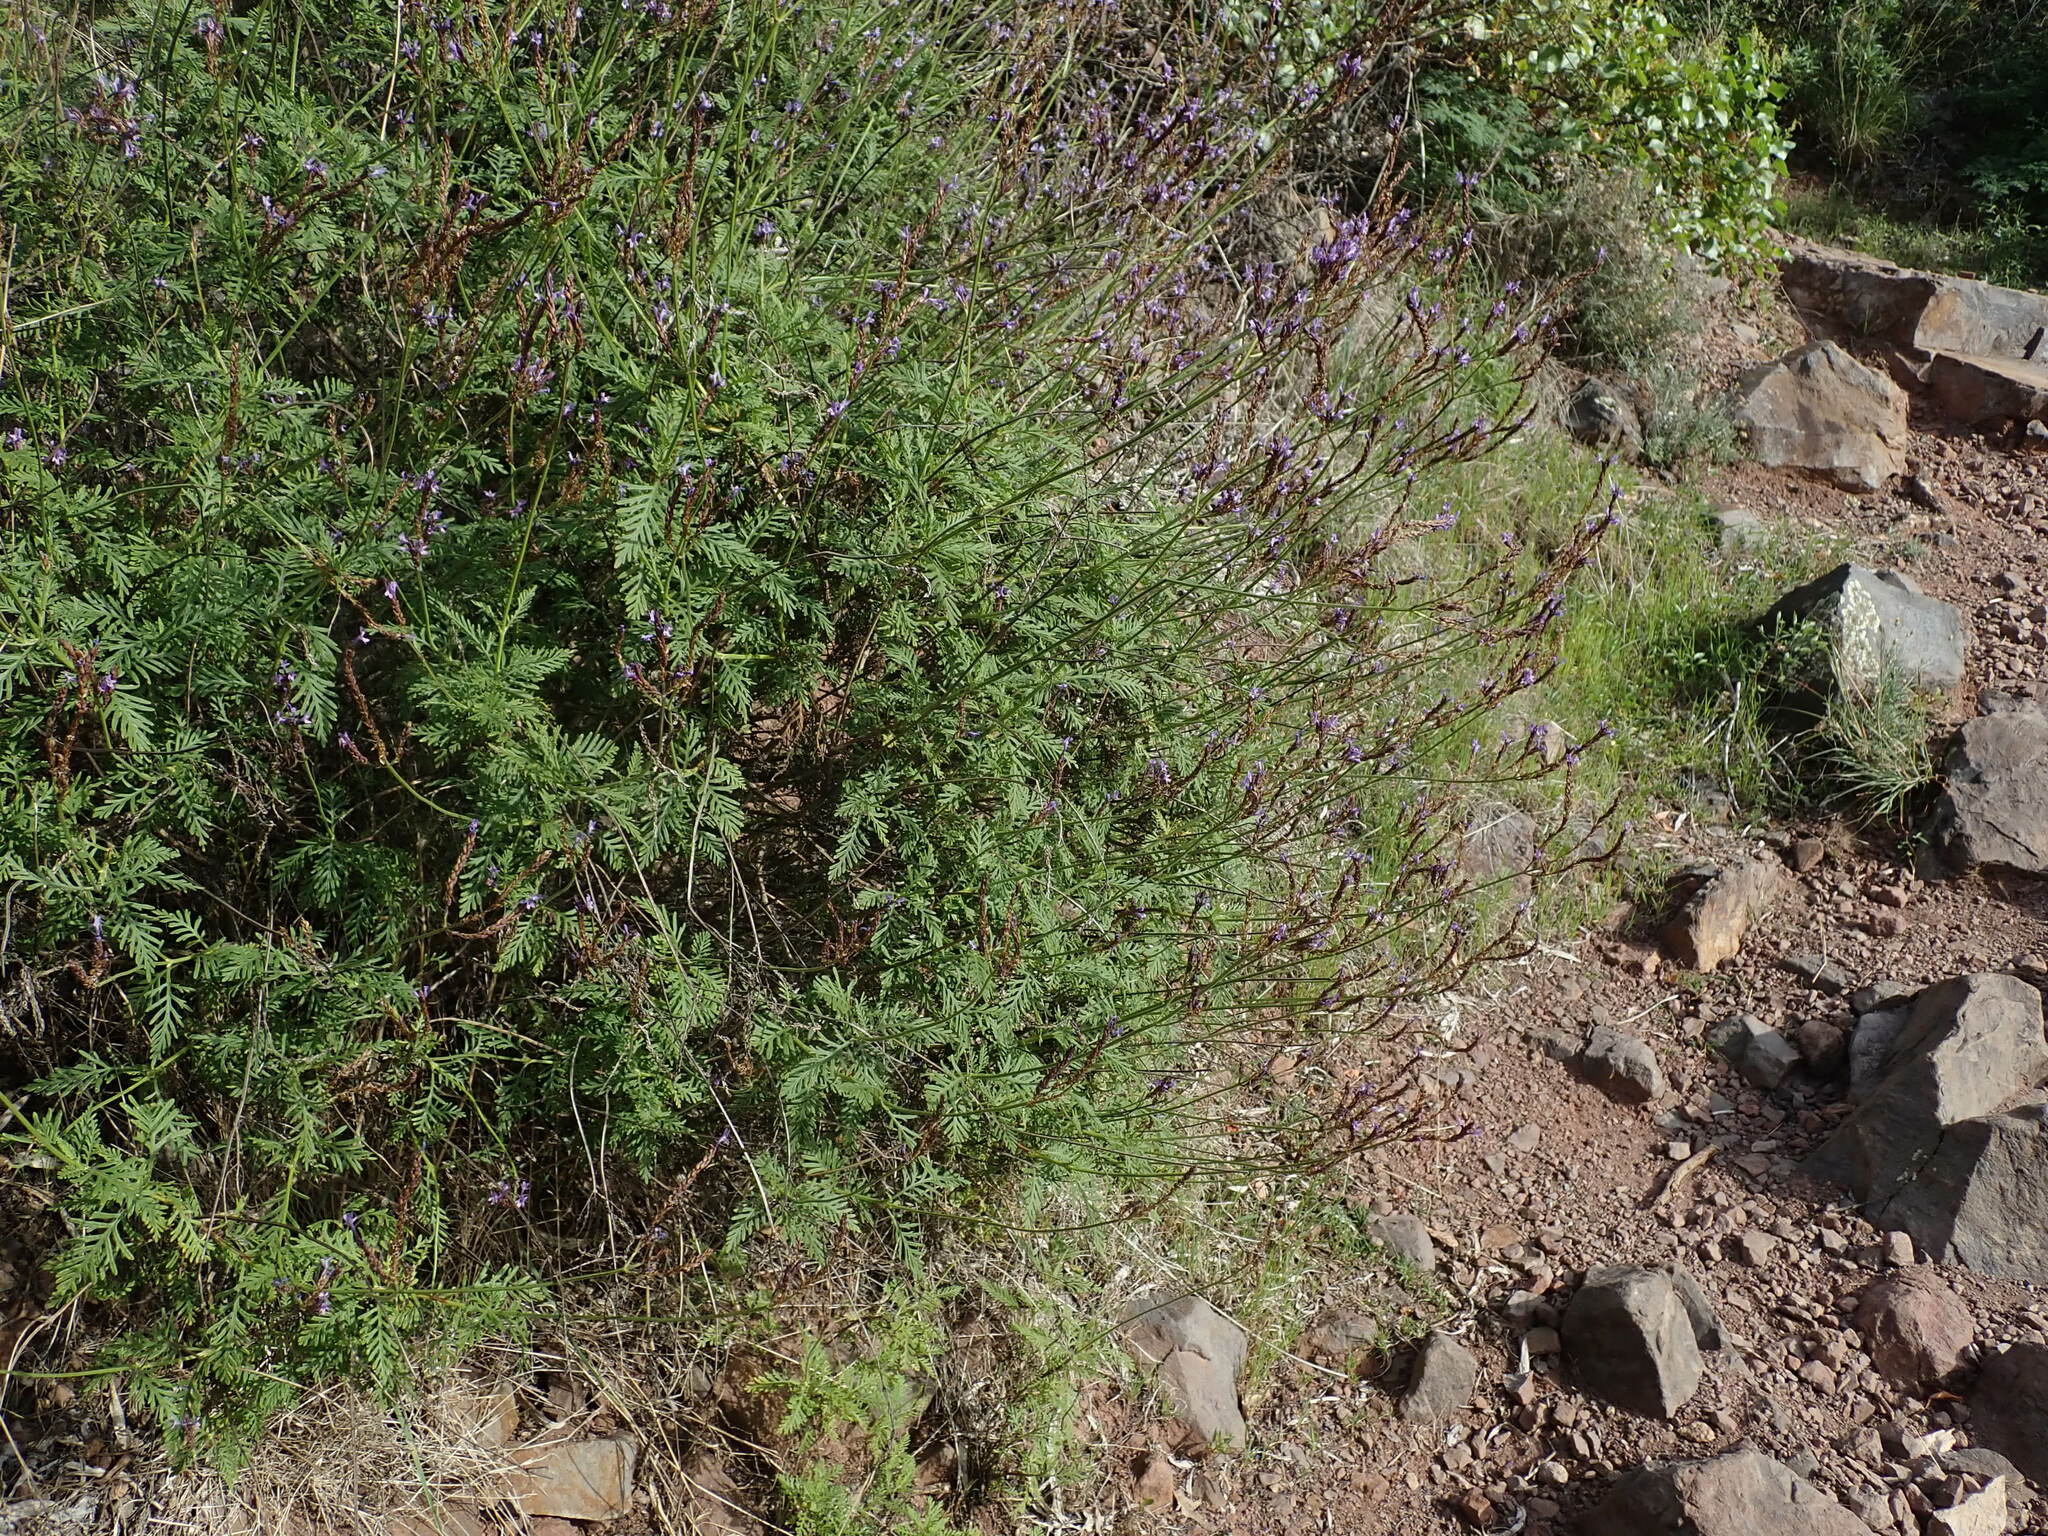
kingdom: Plantae
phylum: Tracheophyta
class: Magnoliopsida
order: Lamiales
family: Lamiaceae
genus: Lavandula
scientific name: Lavandula canariensis
